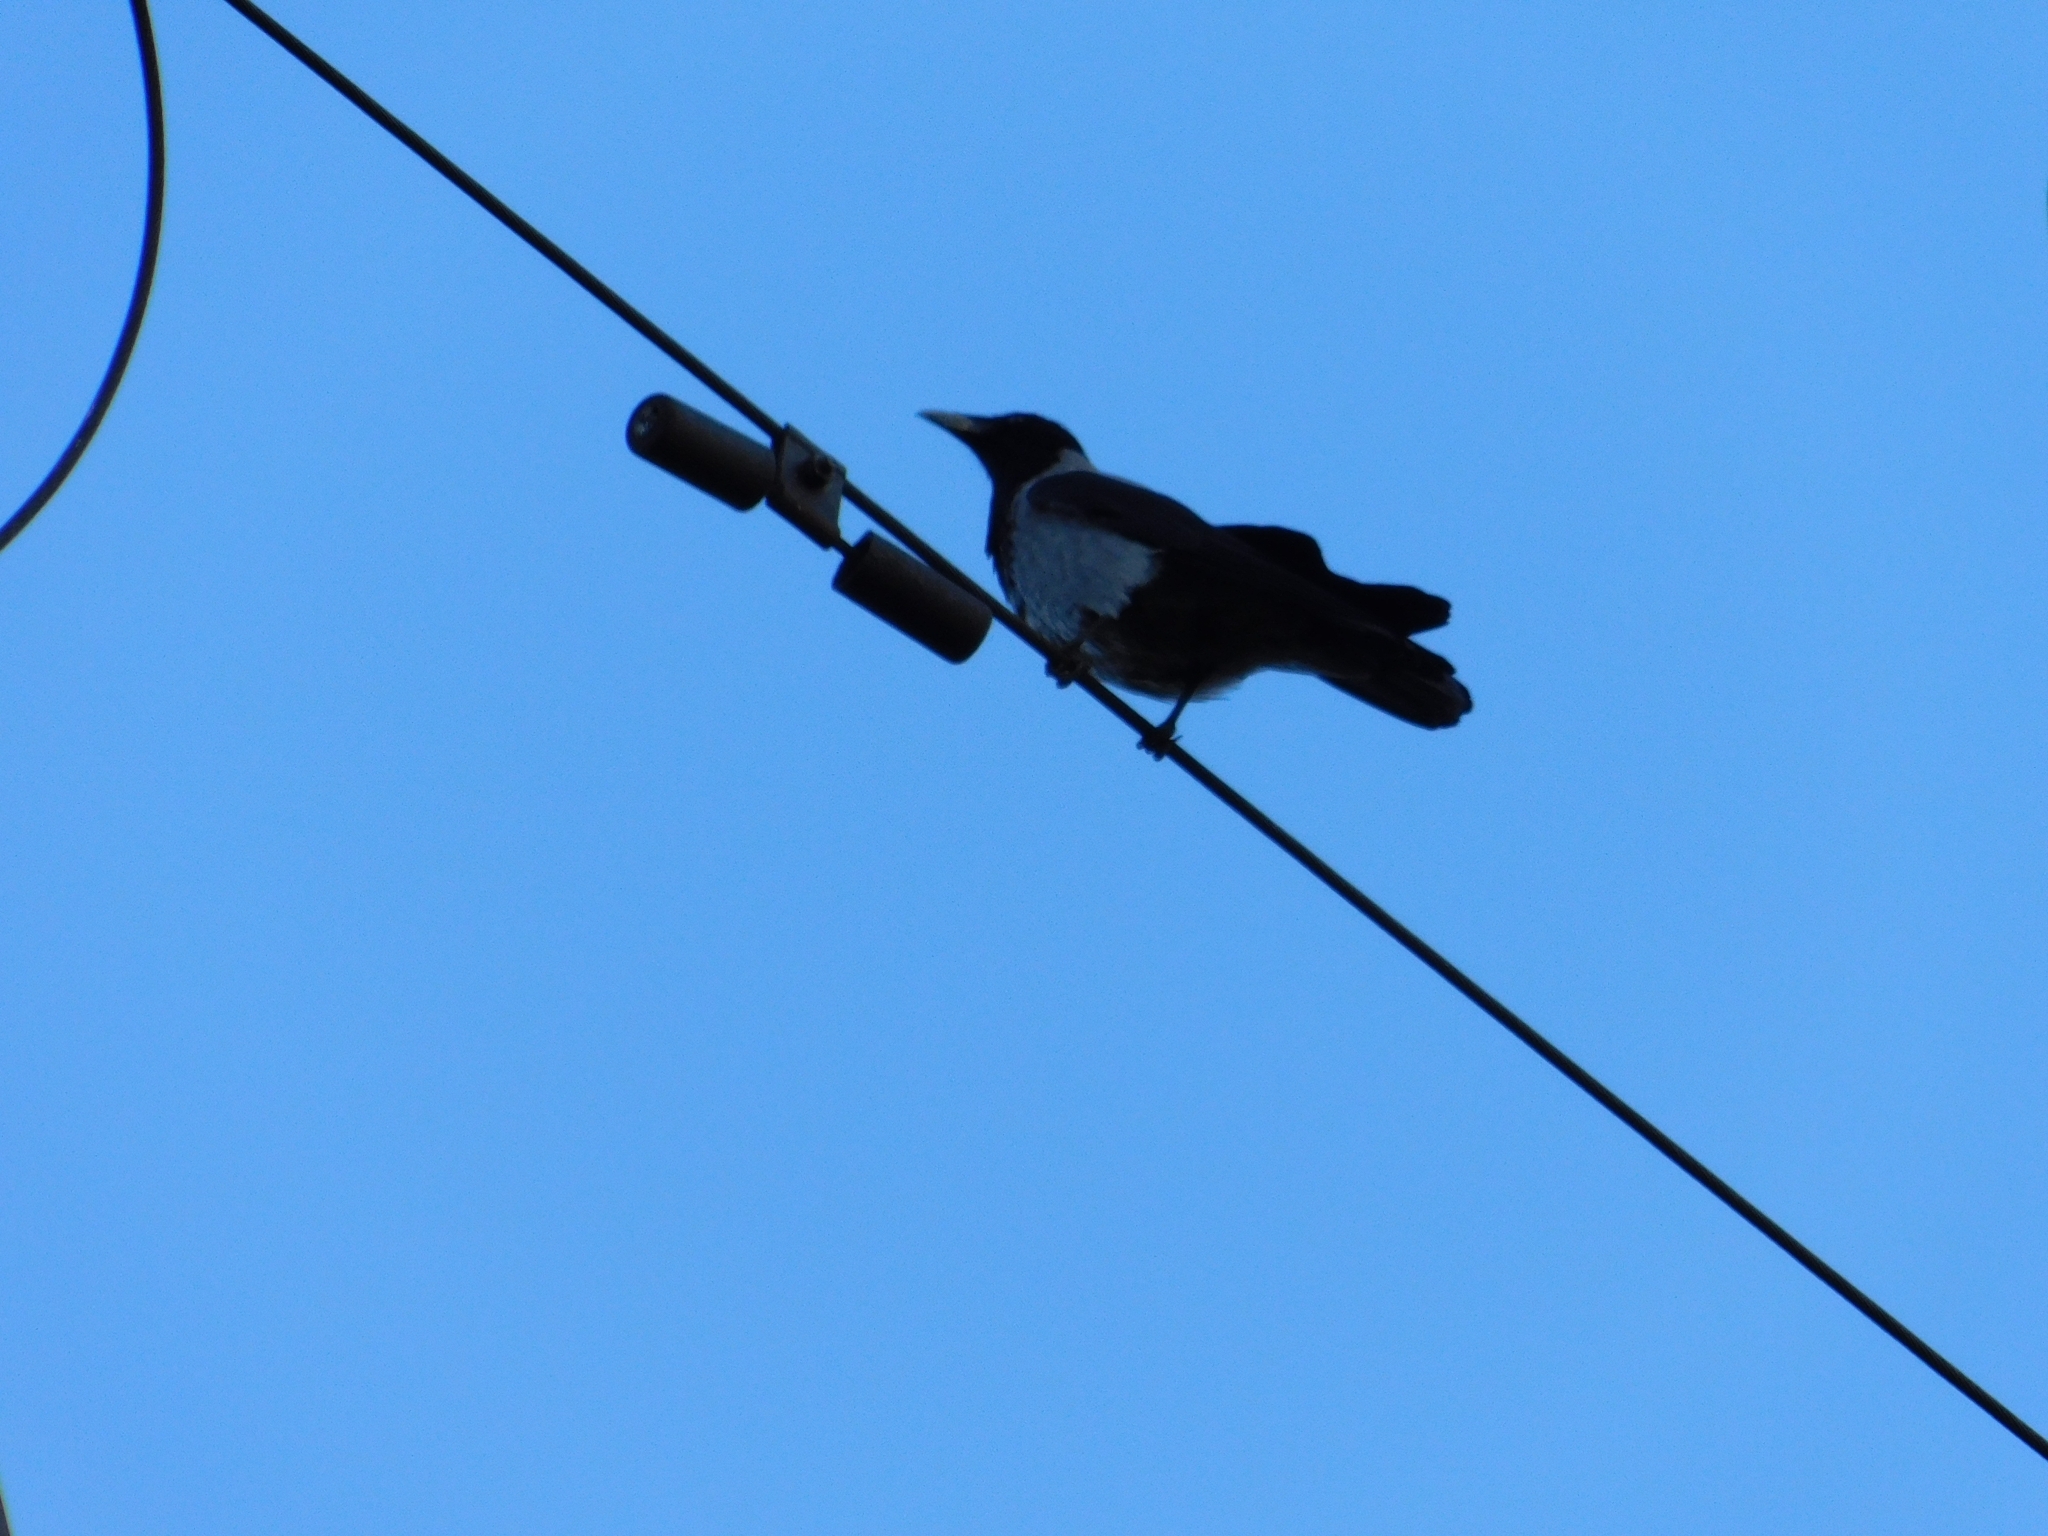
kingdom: Animalia
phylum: Chordata
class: Aves
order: Passeriformes
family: Corvidae
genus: Corvus
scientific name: Corvus cornix
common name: Hooded crow
